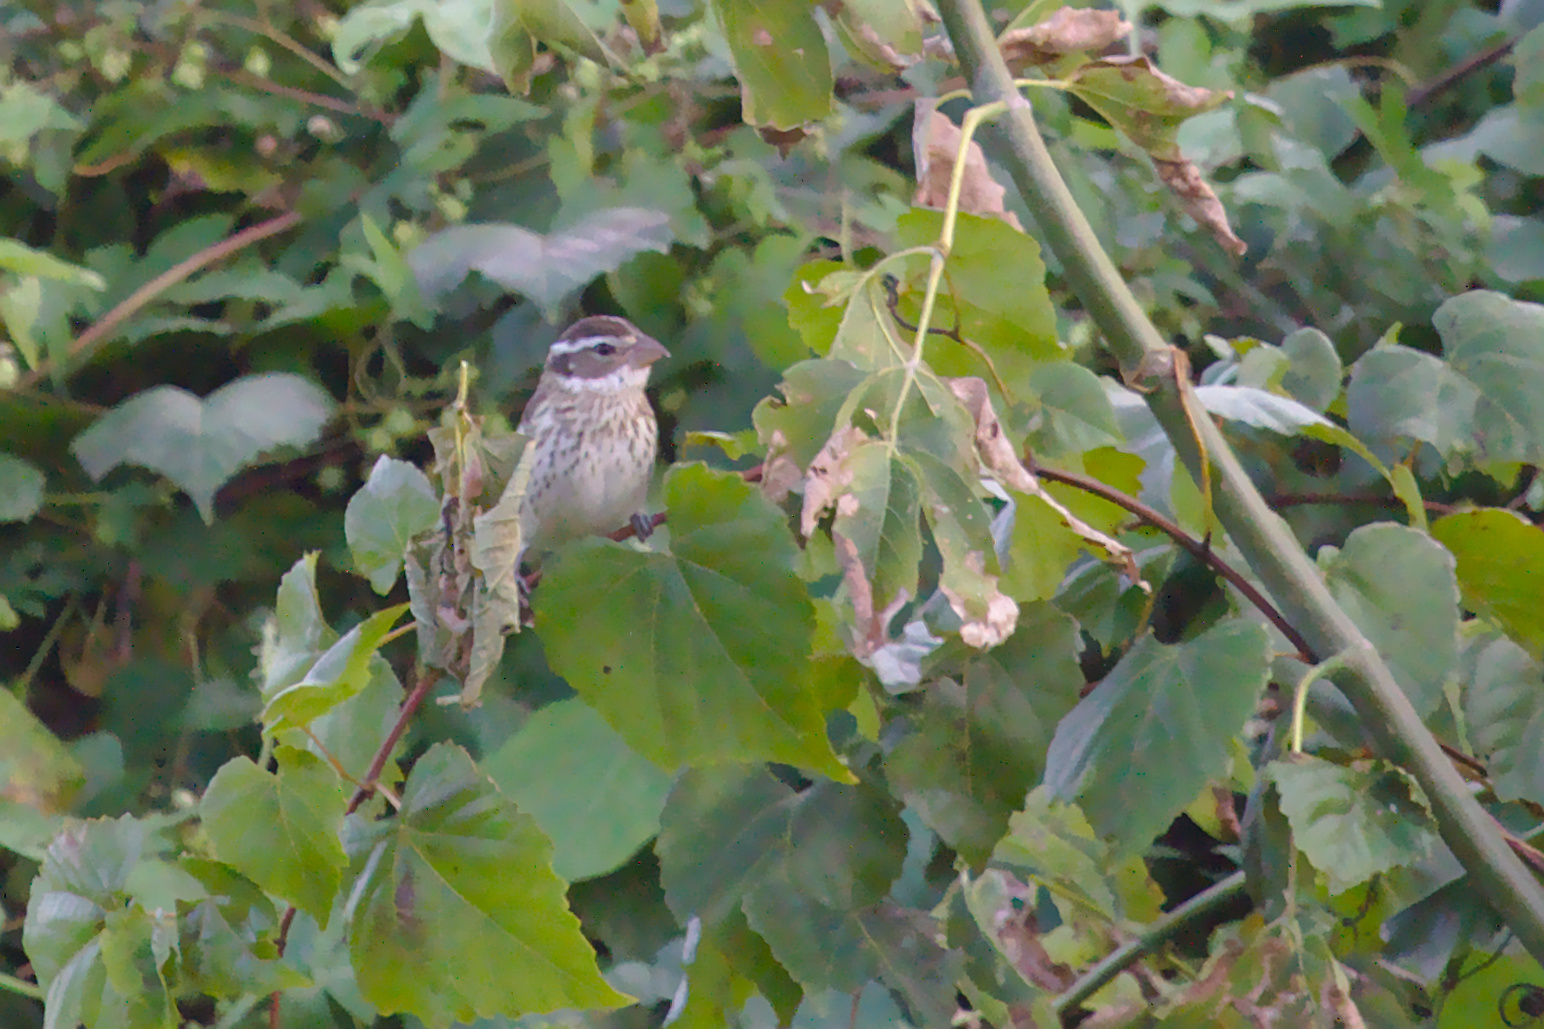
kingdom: Animalia
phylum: Chordata
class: Aves
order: Passeriformes
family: Cardinalidae
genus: Pheucticus
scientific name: Pheucticus ludovicianus
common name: Rose-breasted grosbeak
